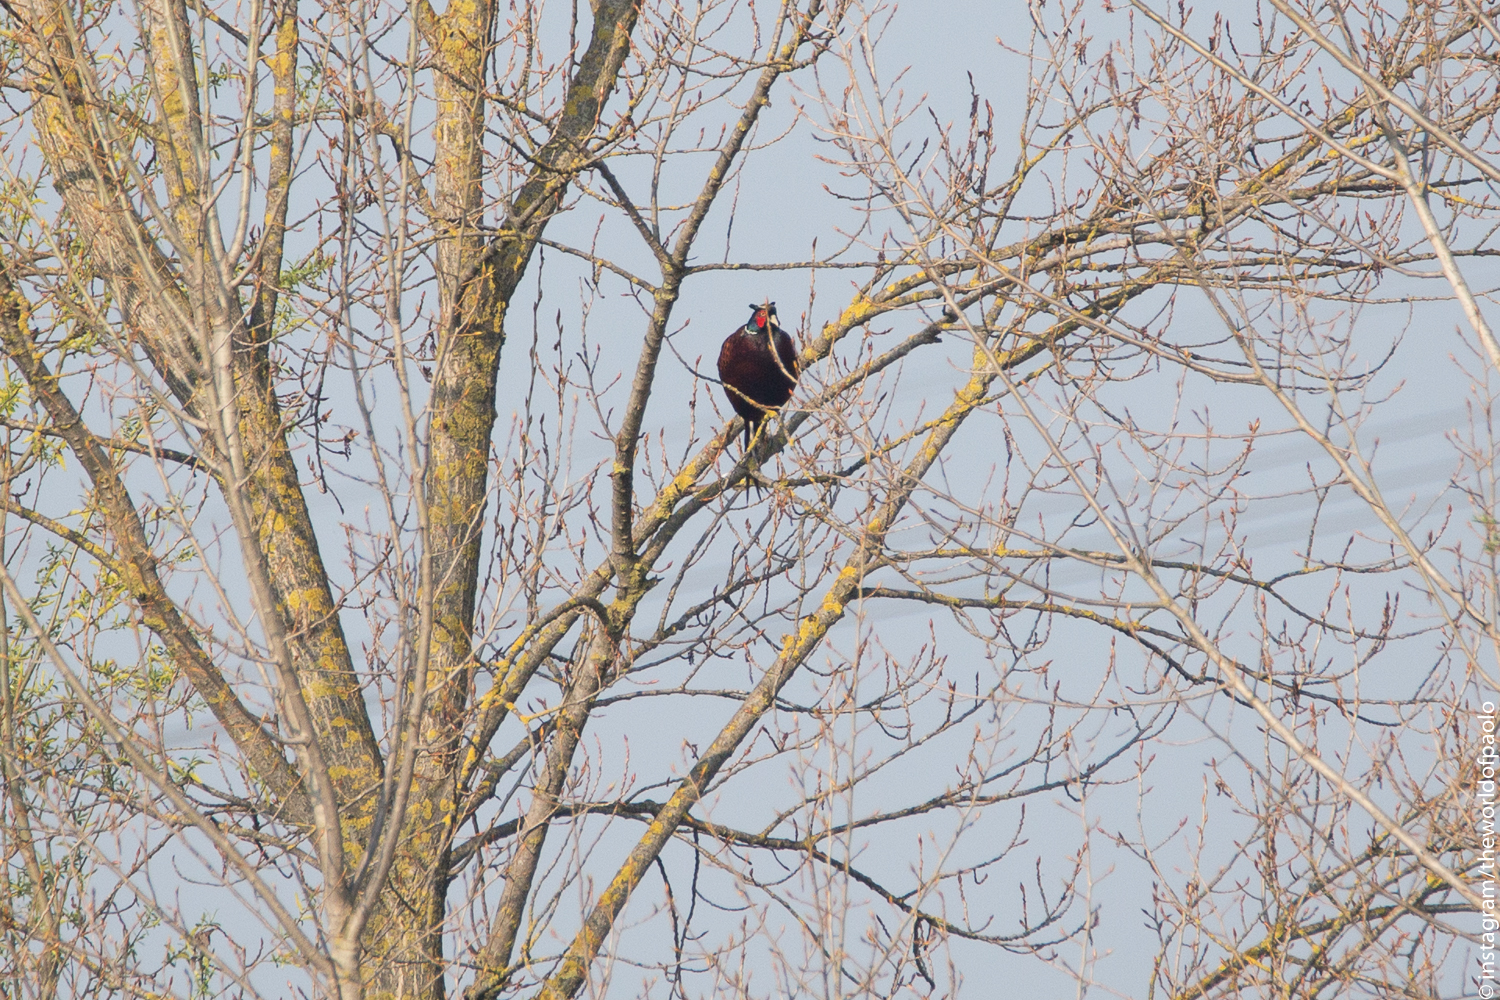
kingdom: Animalia
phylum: Chordata
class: Aves
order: Galliformes
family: Phasianidae
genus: Phasianus
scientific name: Phasianus colchicus
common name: Common pheasant
